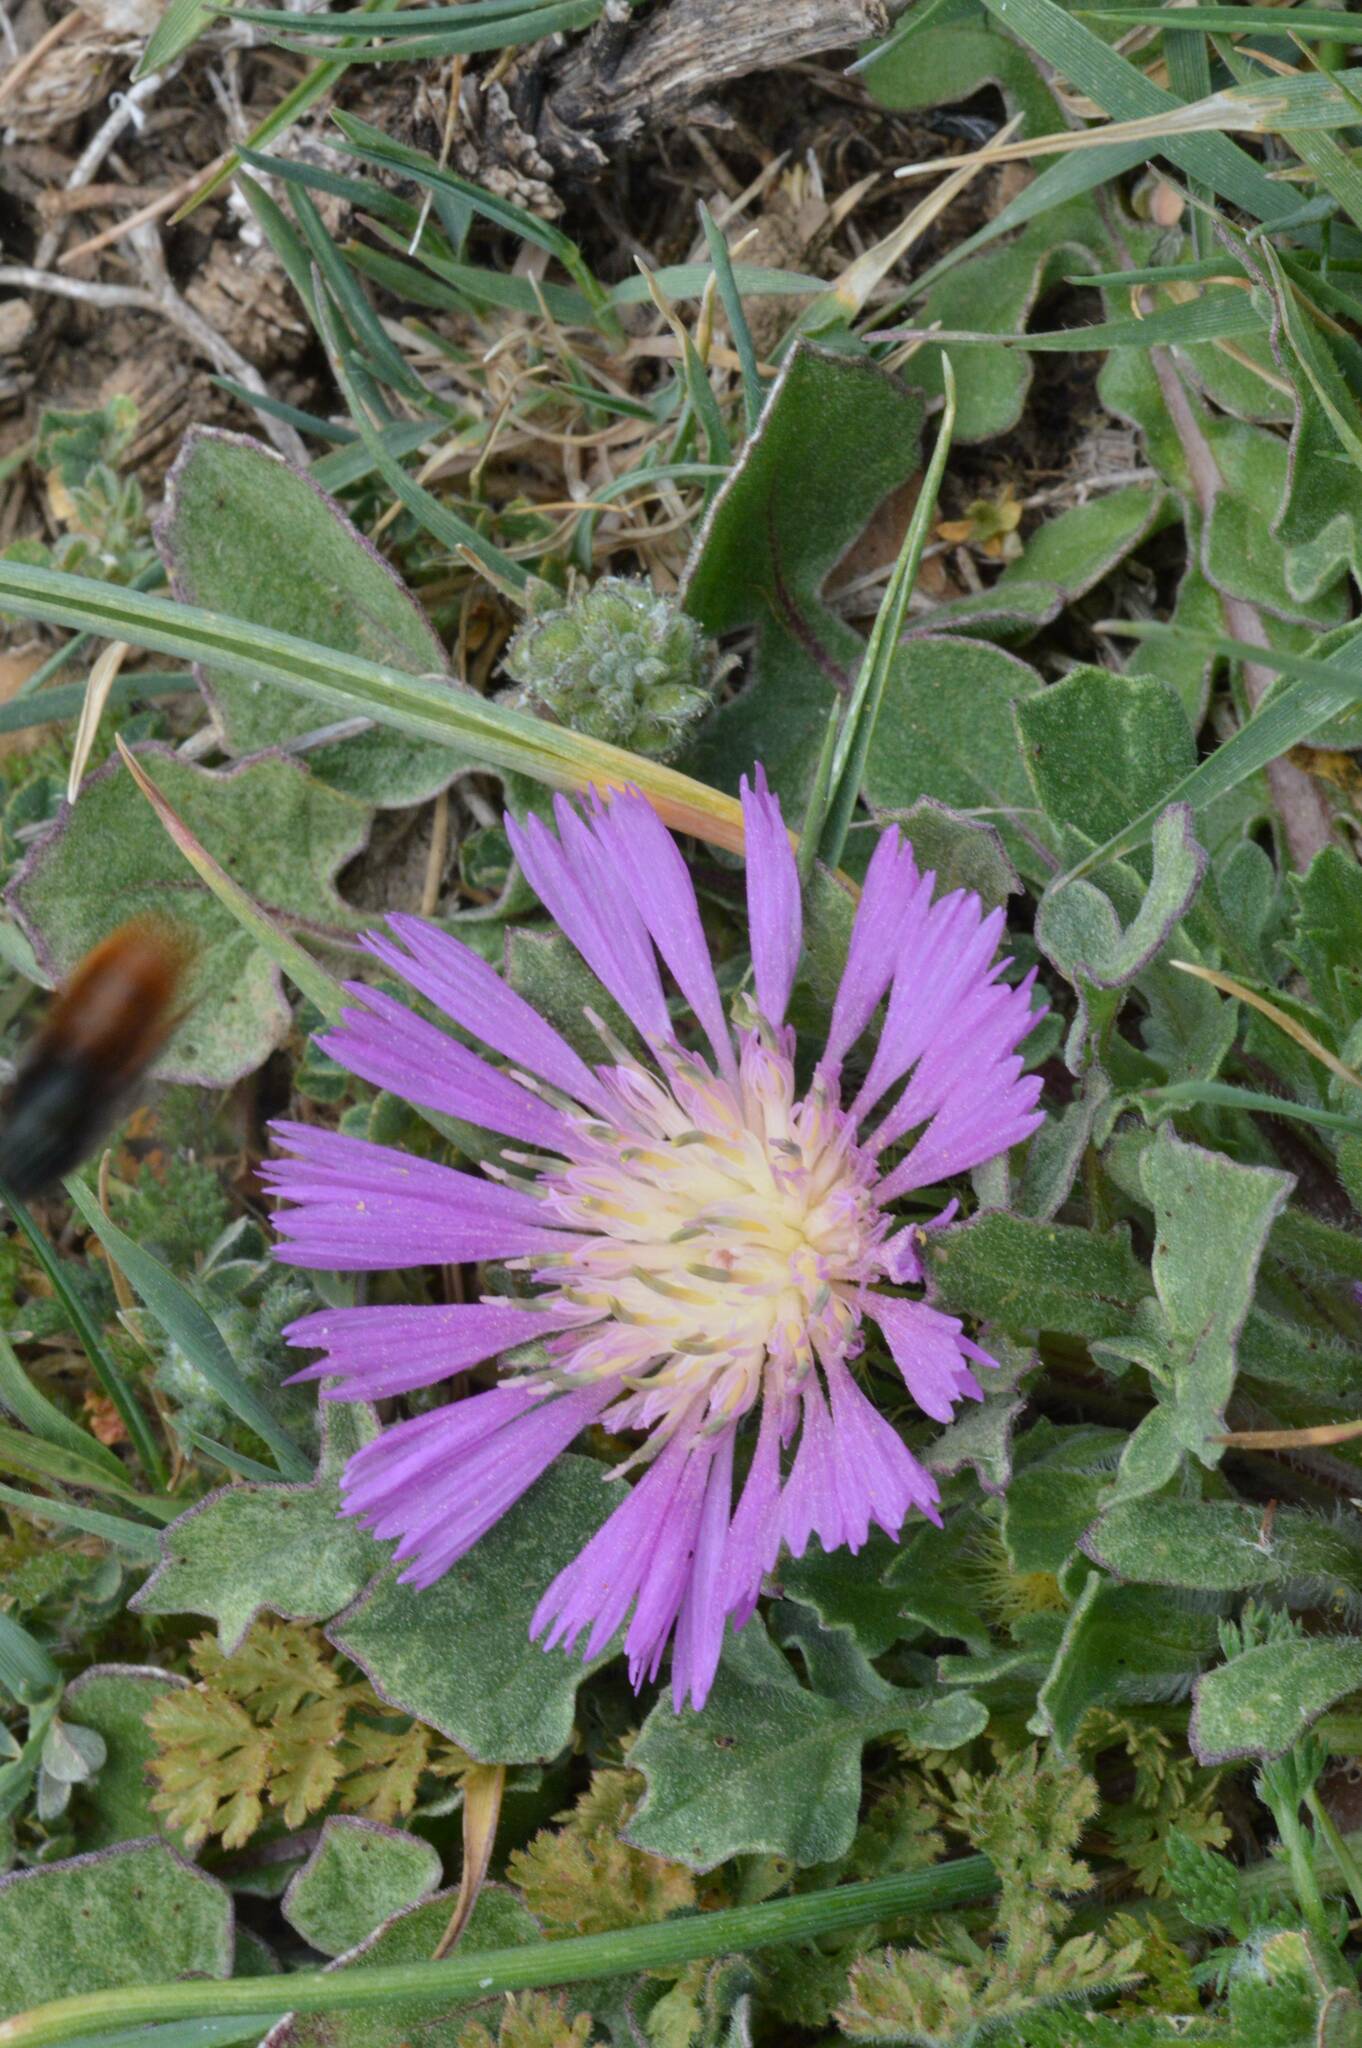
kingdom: Plantae
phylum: Tracheophyta
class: Magnoliopsida
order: Asterales
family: Asteraceae
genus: Centaurea
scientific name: Centaurea pullata
